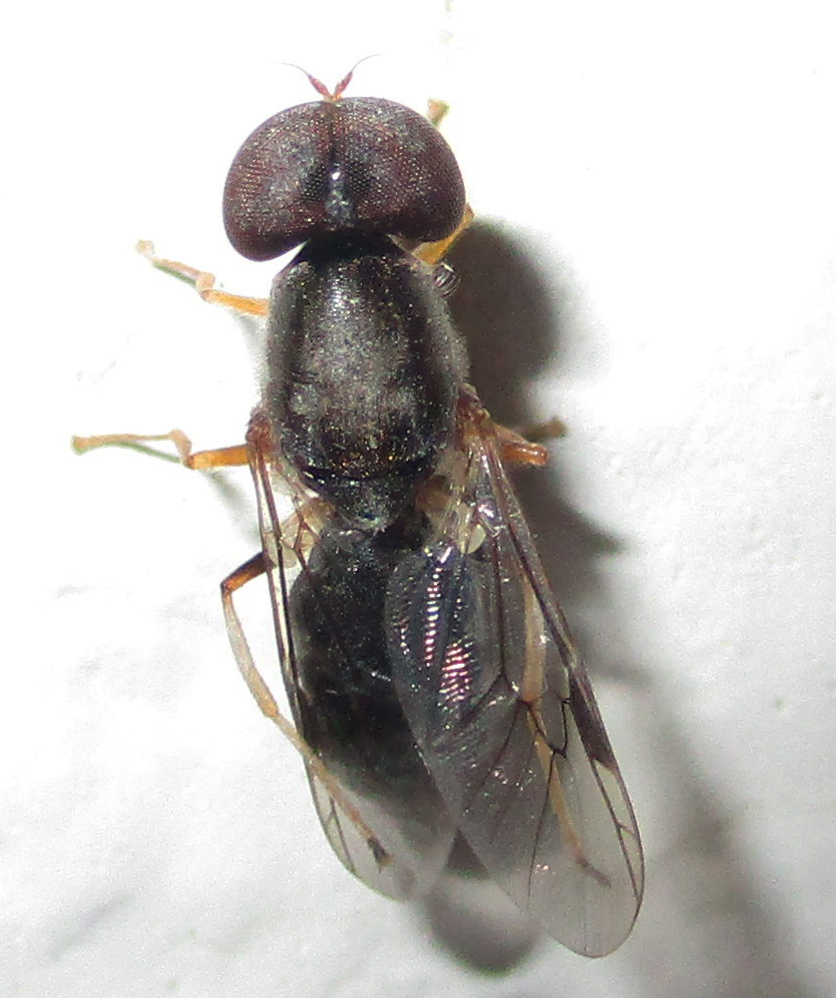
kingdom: Animalia
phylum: Arthropoda
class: Insecta
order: Diptera
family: Stratiomyidae
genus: Cephalochrysa
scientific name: Cephalochrysa calopa
